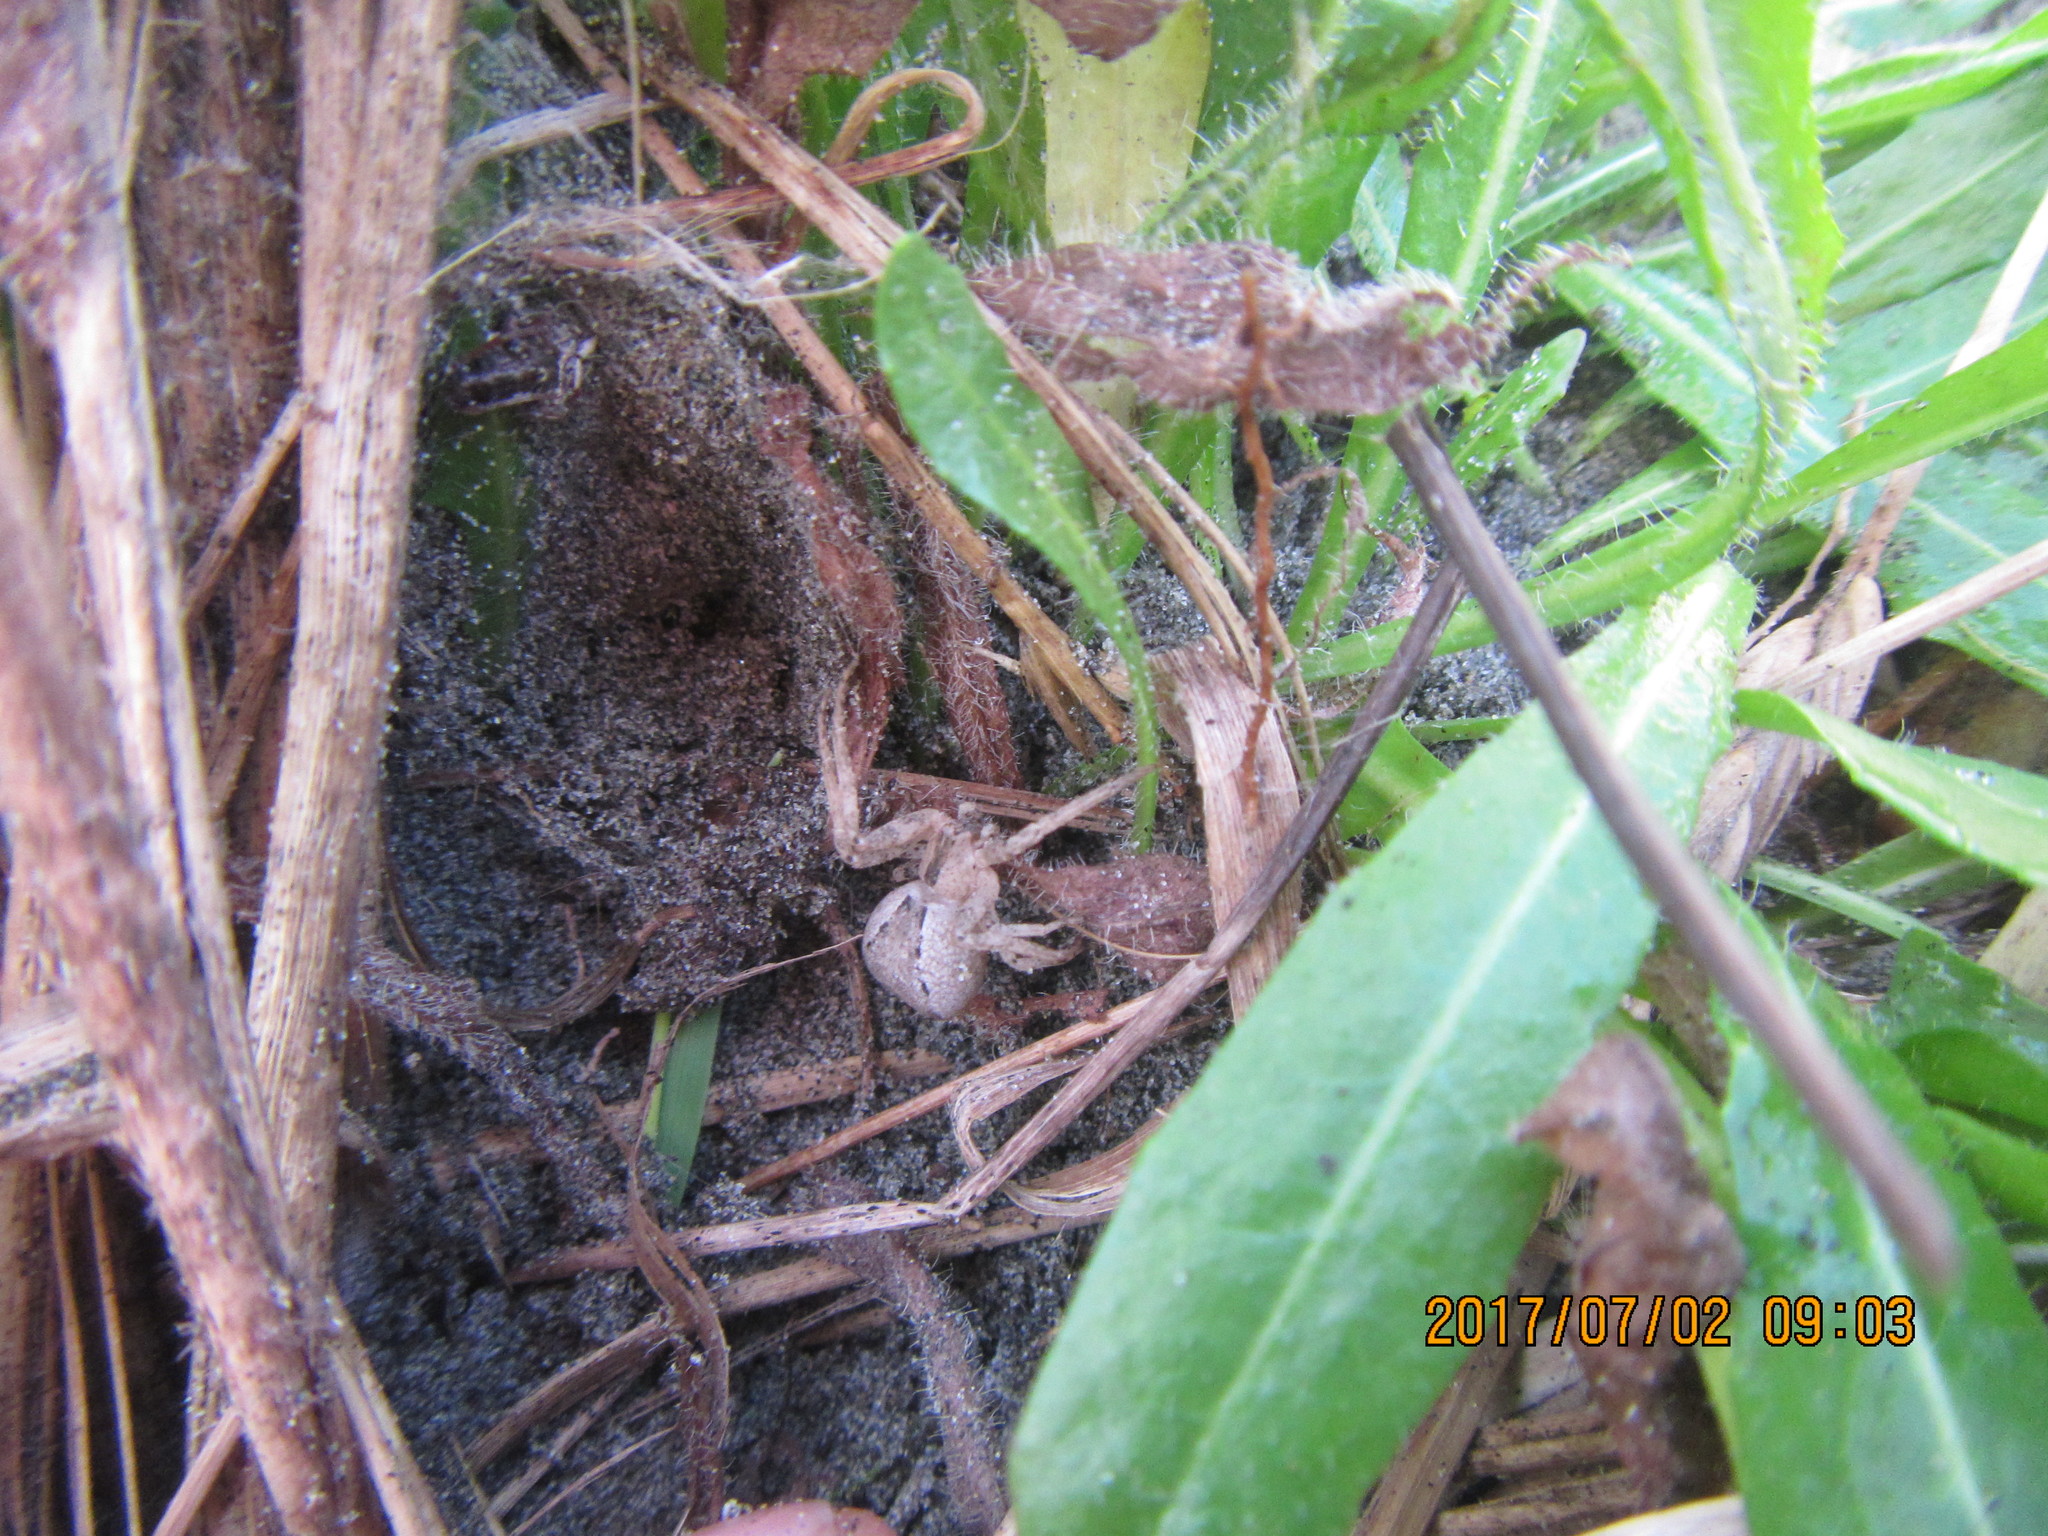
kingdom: Animalia
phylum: Arthropoda
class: Arachnida
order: Araneae
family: Theridiidae
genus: Latrodectus
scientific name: Latrodectus katipo
